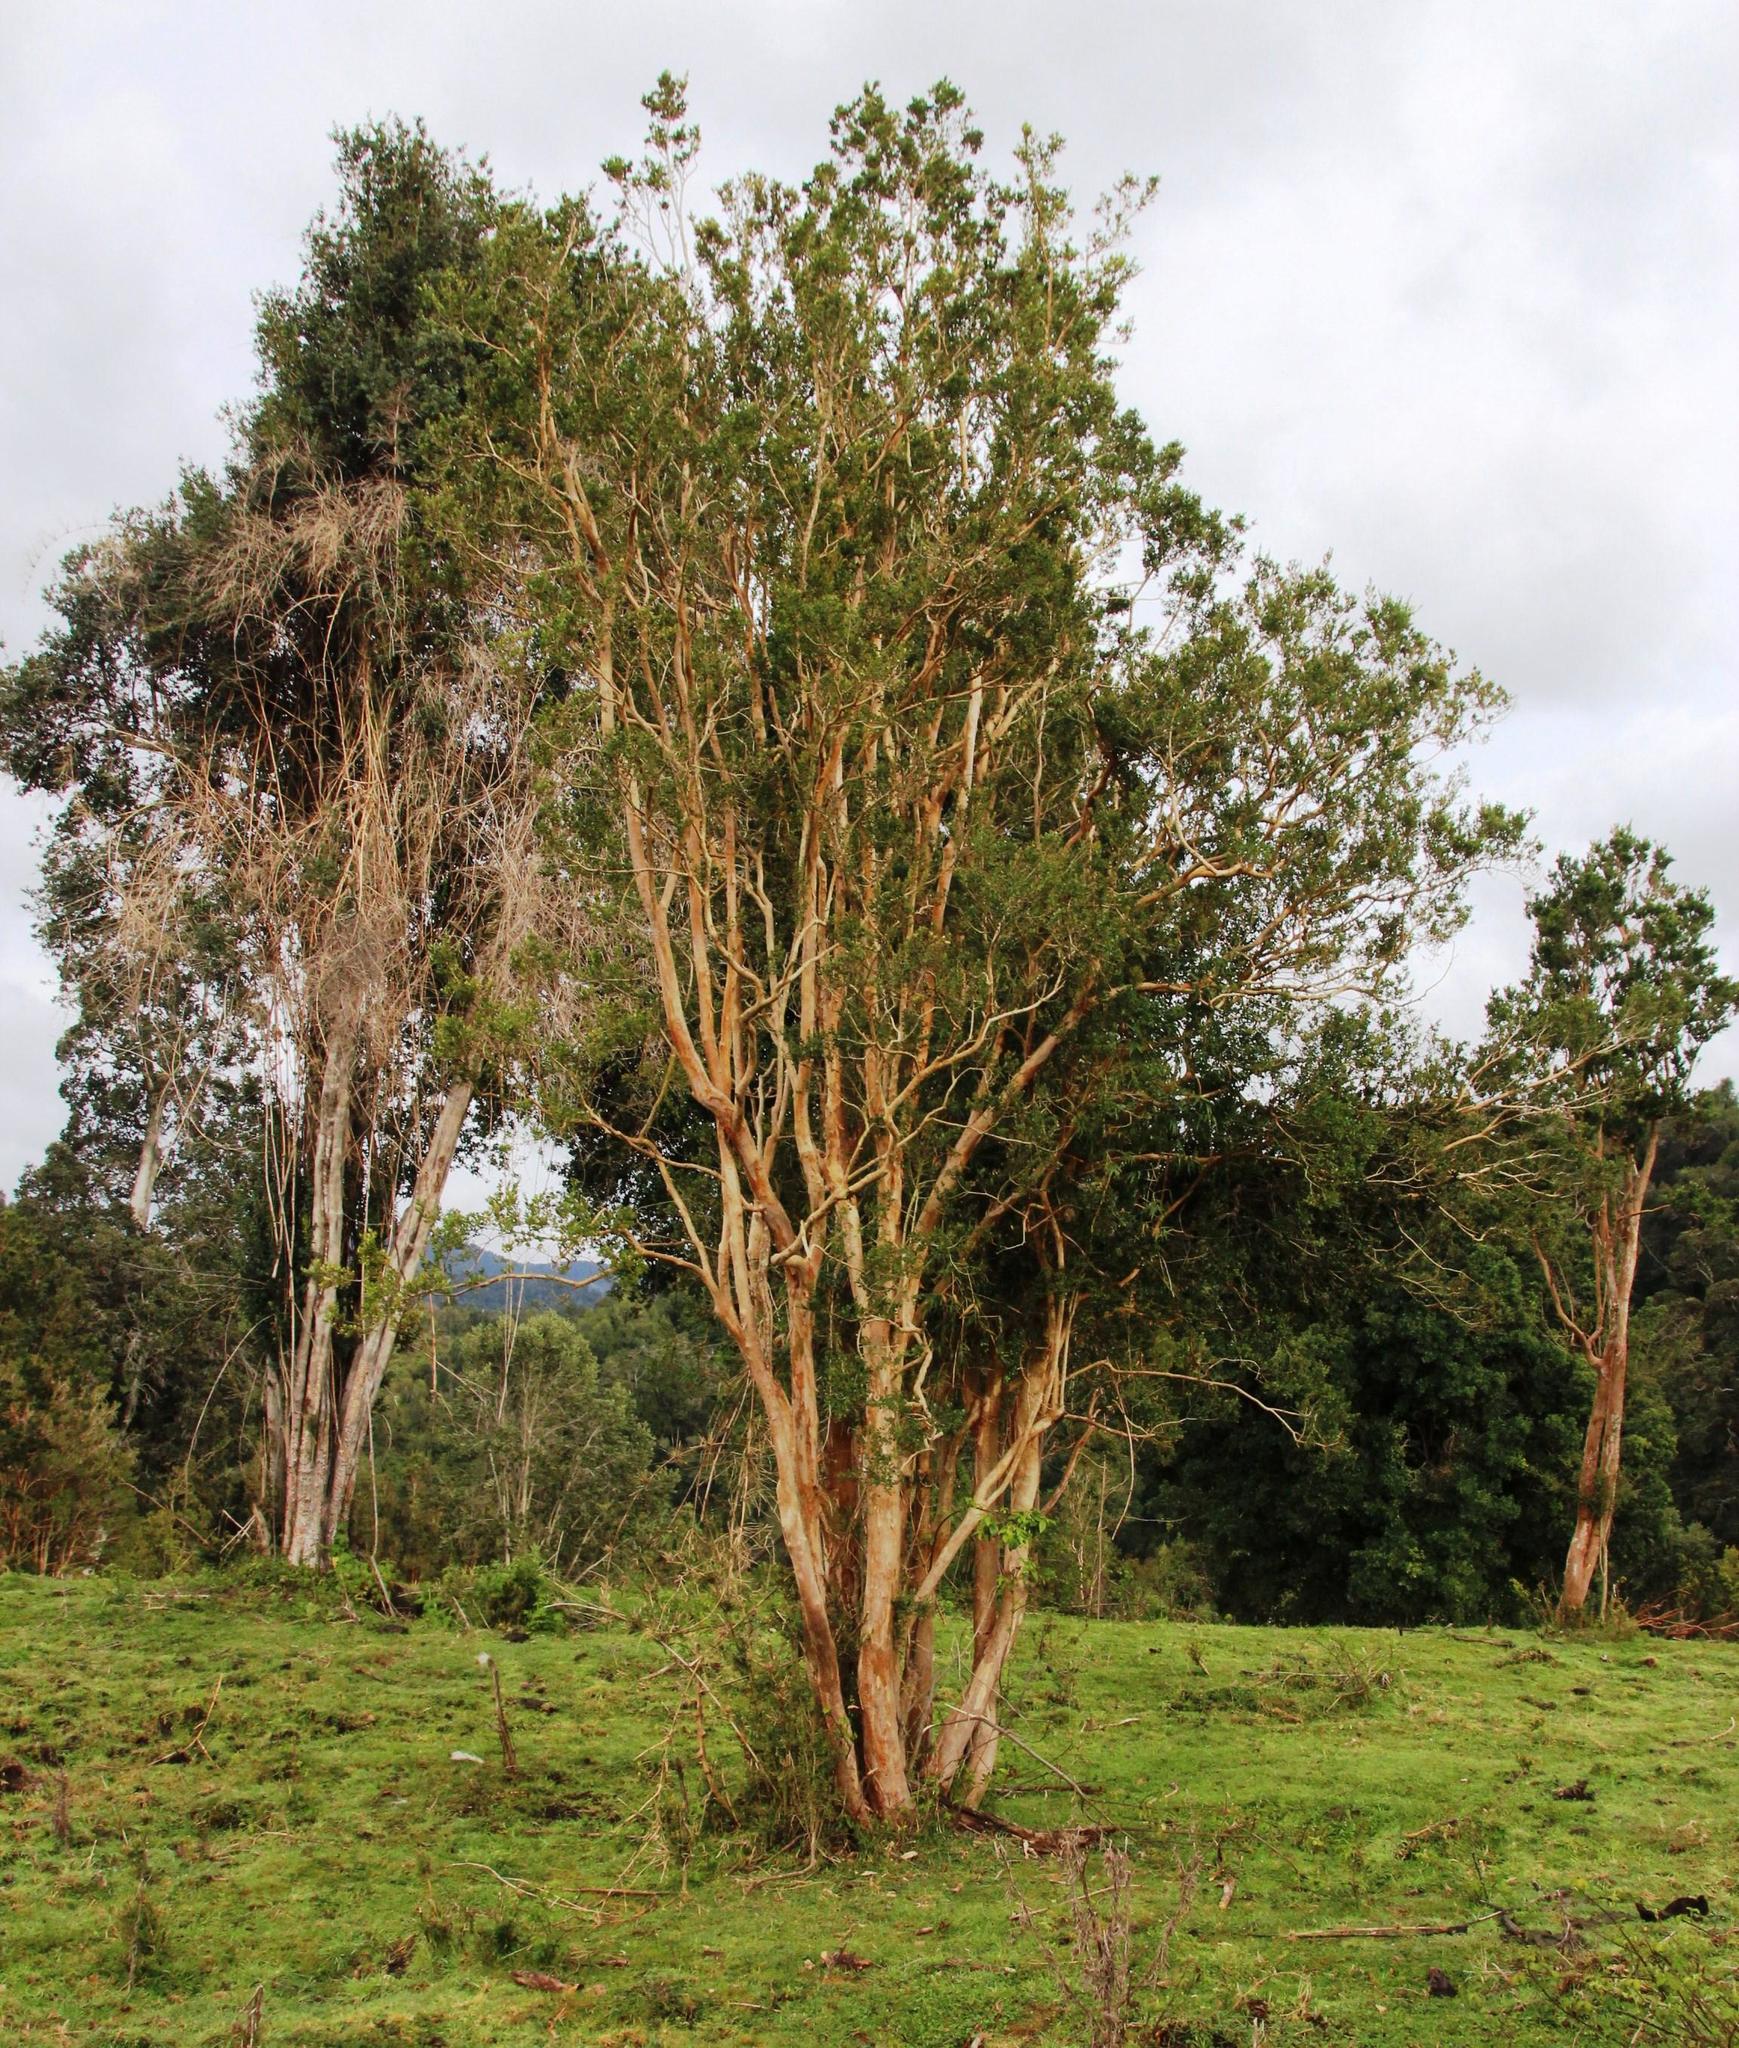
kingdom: Plantae
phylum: Tracheophyta
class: Magnoliopsida
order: Myrtales
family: Myrtaceae
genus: Luma
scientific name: Luma apiculata
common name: Chilean myrtle
